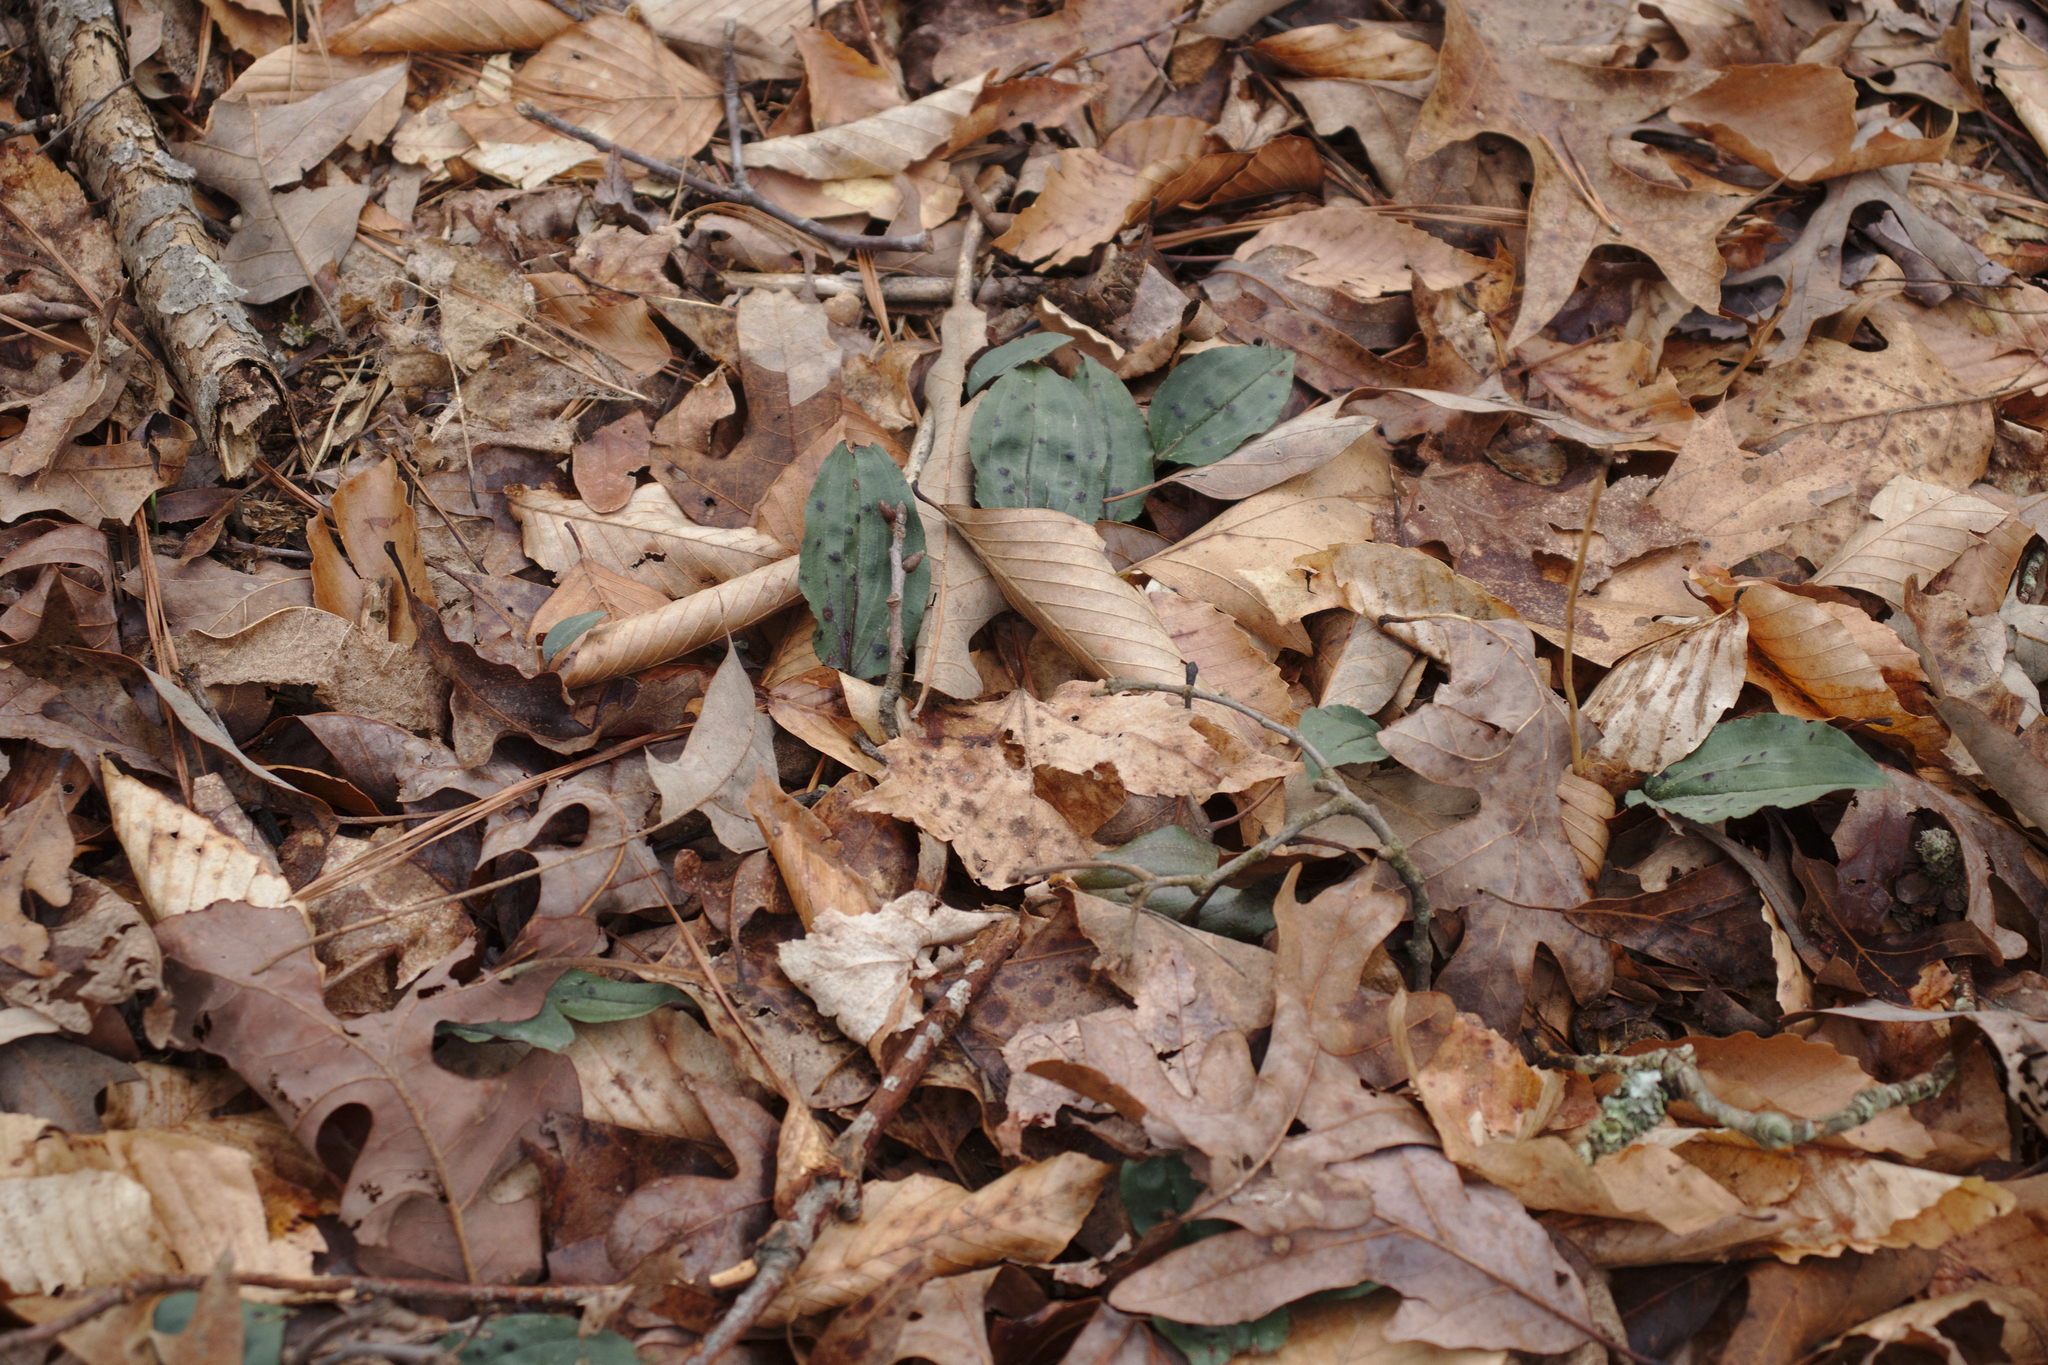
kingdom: Plantae
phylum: Tracheophyta
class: Liliopsida
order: Asparagales
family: Orchidaceae
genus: Tipularia
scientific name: Tipularia discolor
